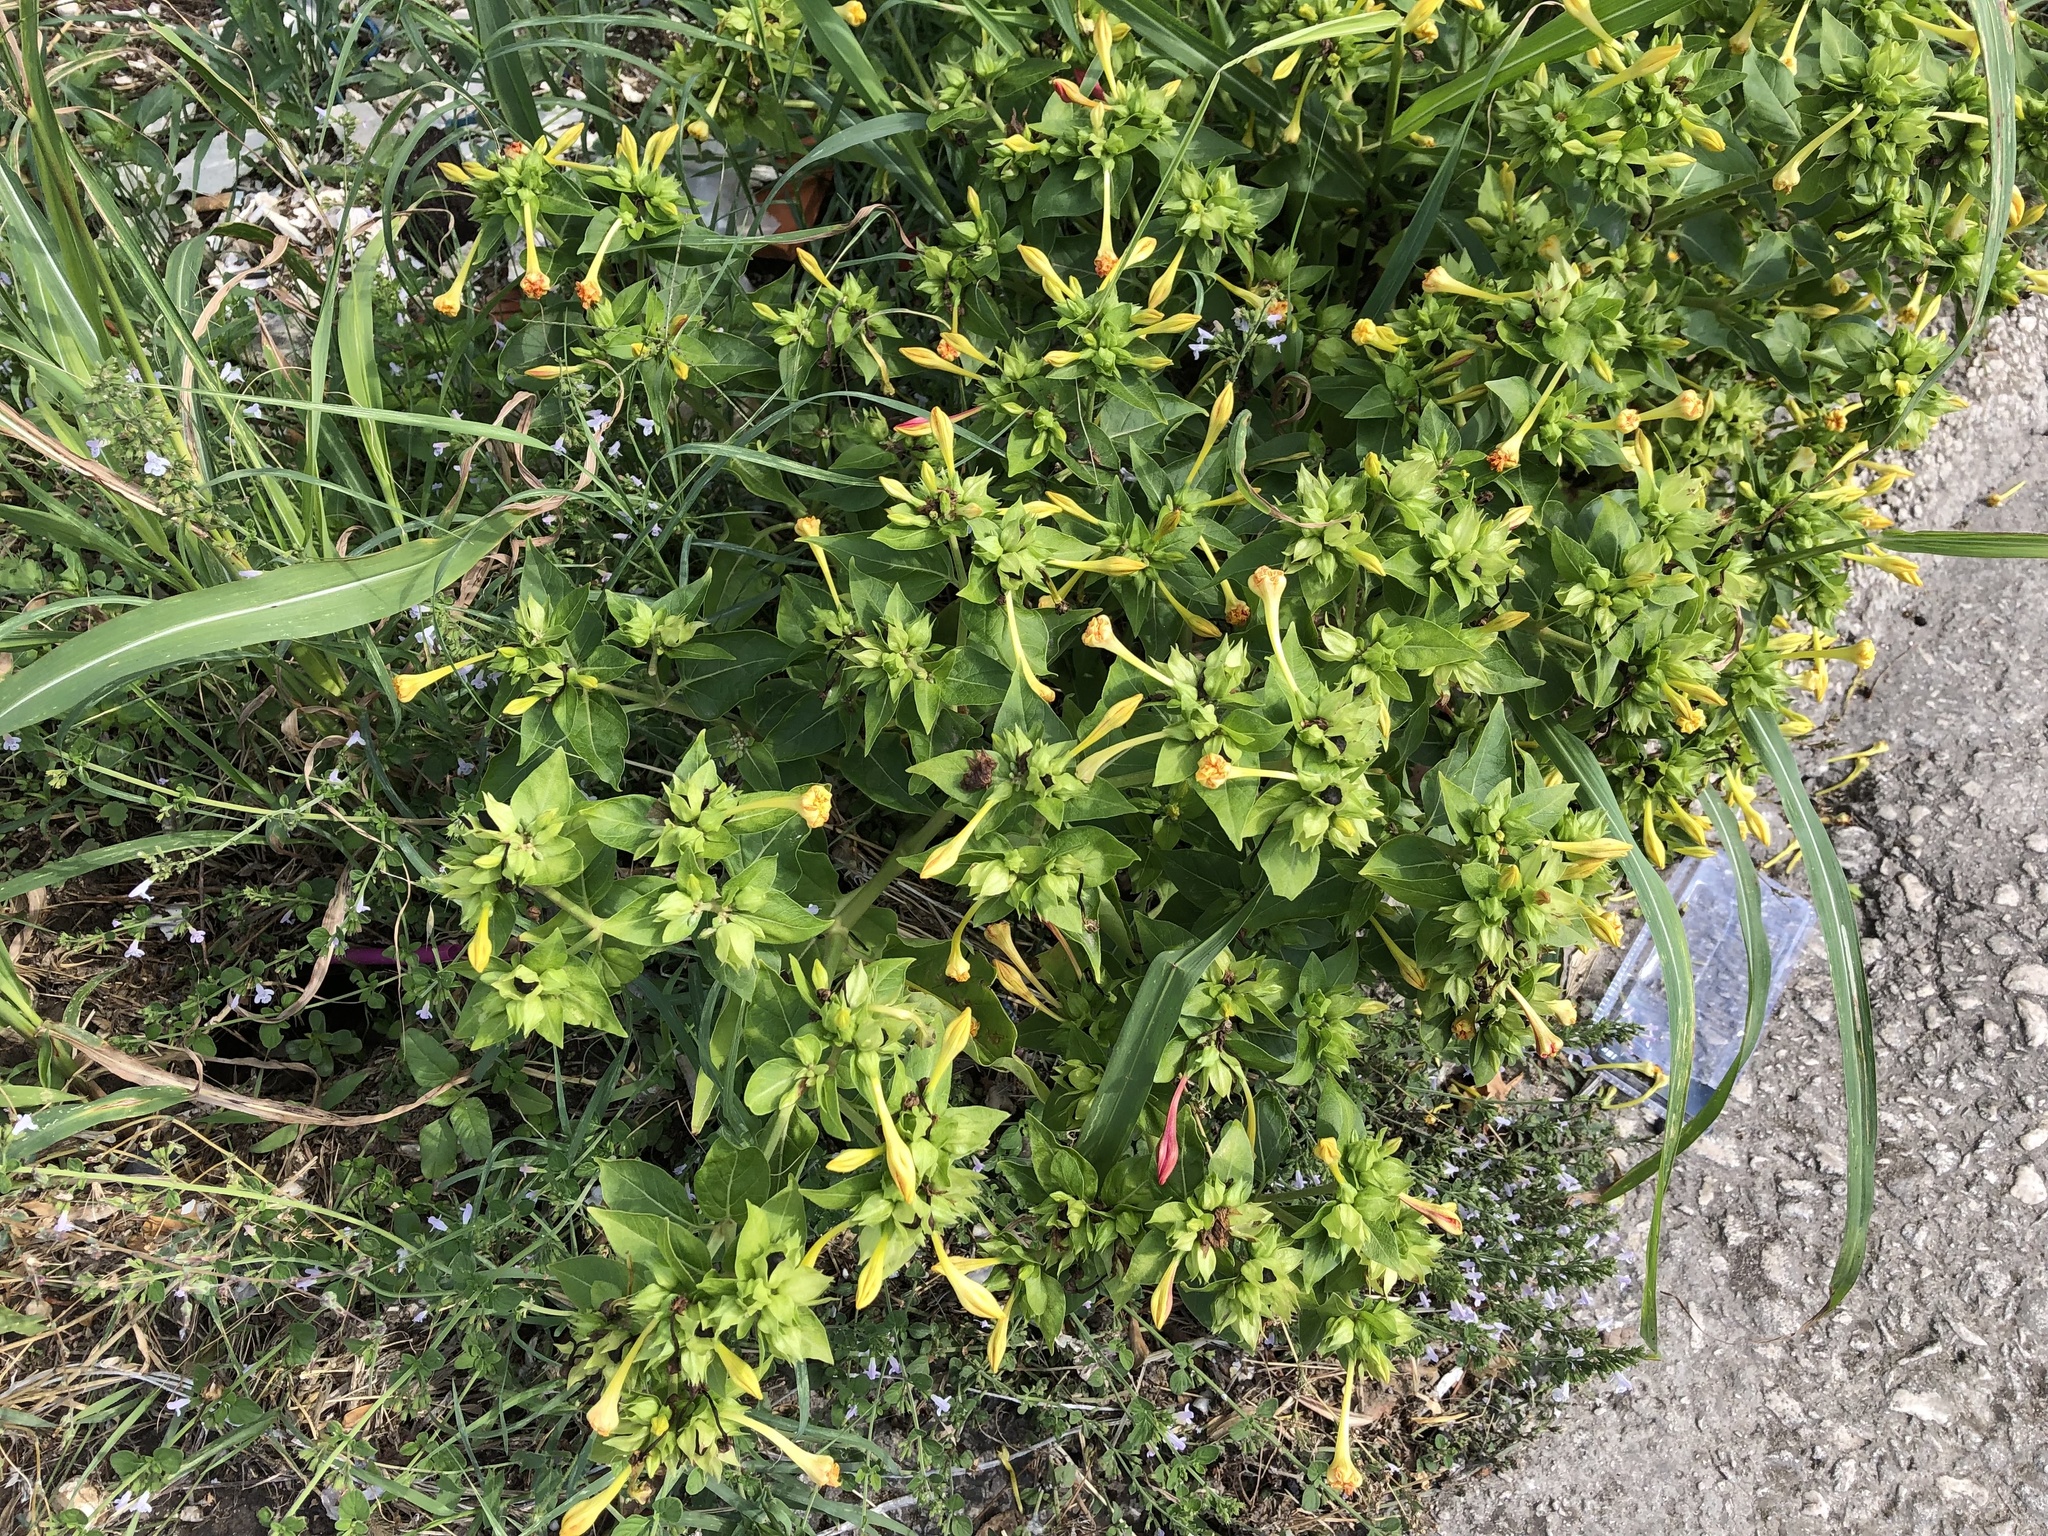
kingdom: Plantae
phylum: Tracheophyta
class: Magnoliopsida
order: Caryophyllales
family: Nyctaginaceae
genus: Mirabilis
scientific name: Mirabilis jalapa
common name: Marvel-of-peru
